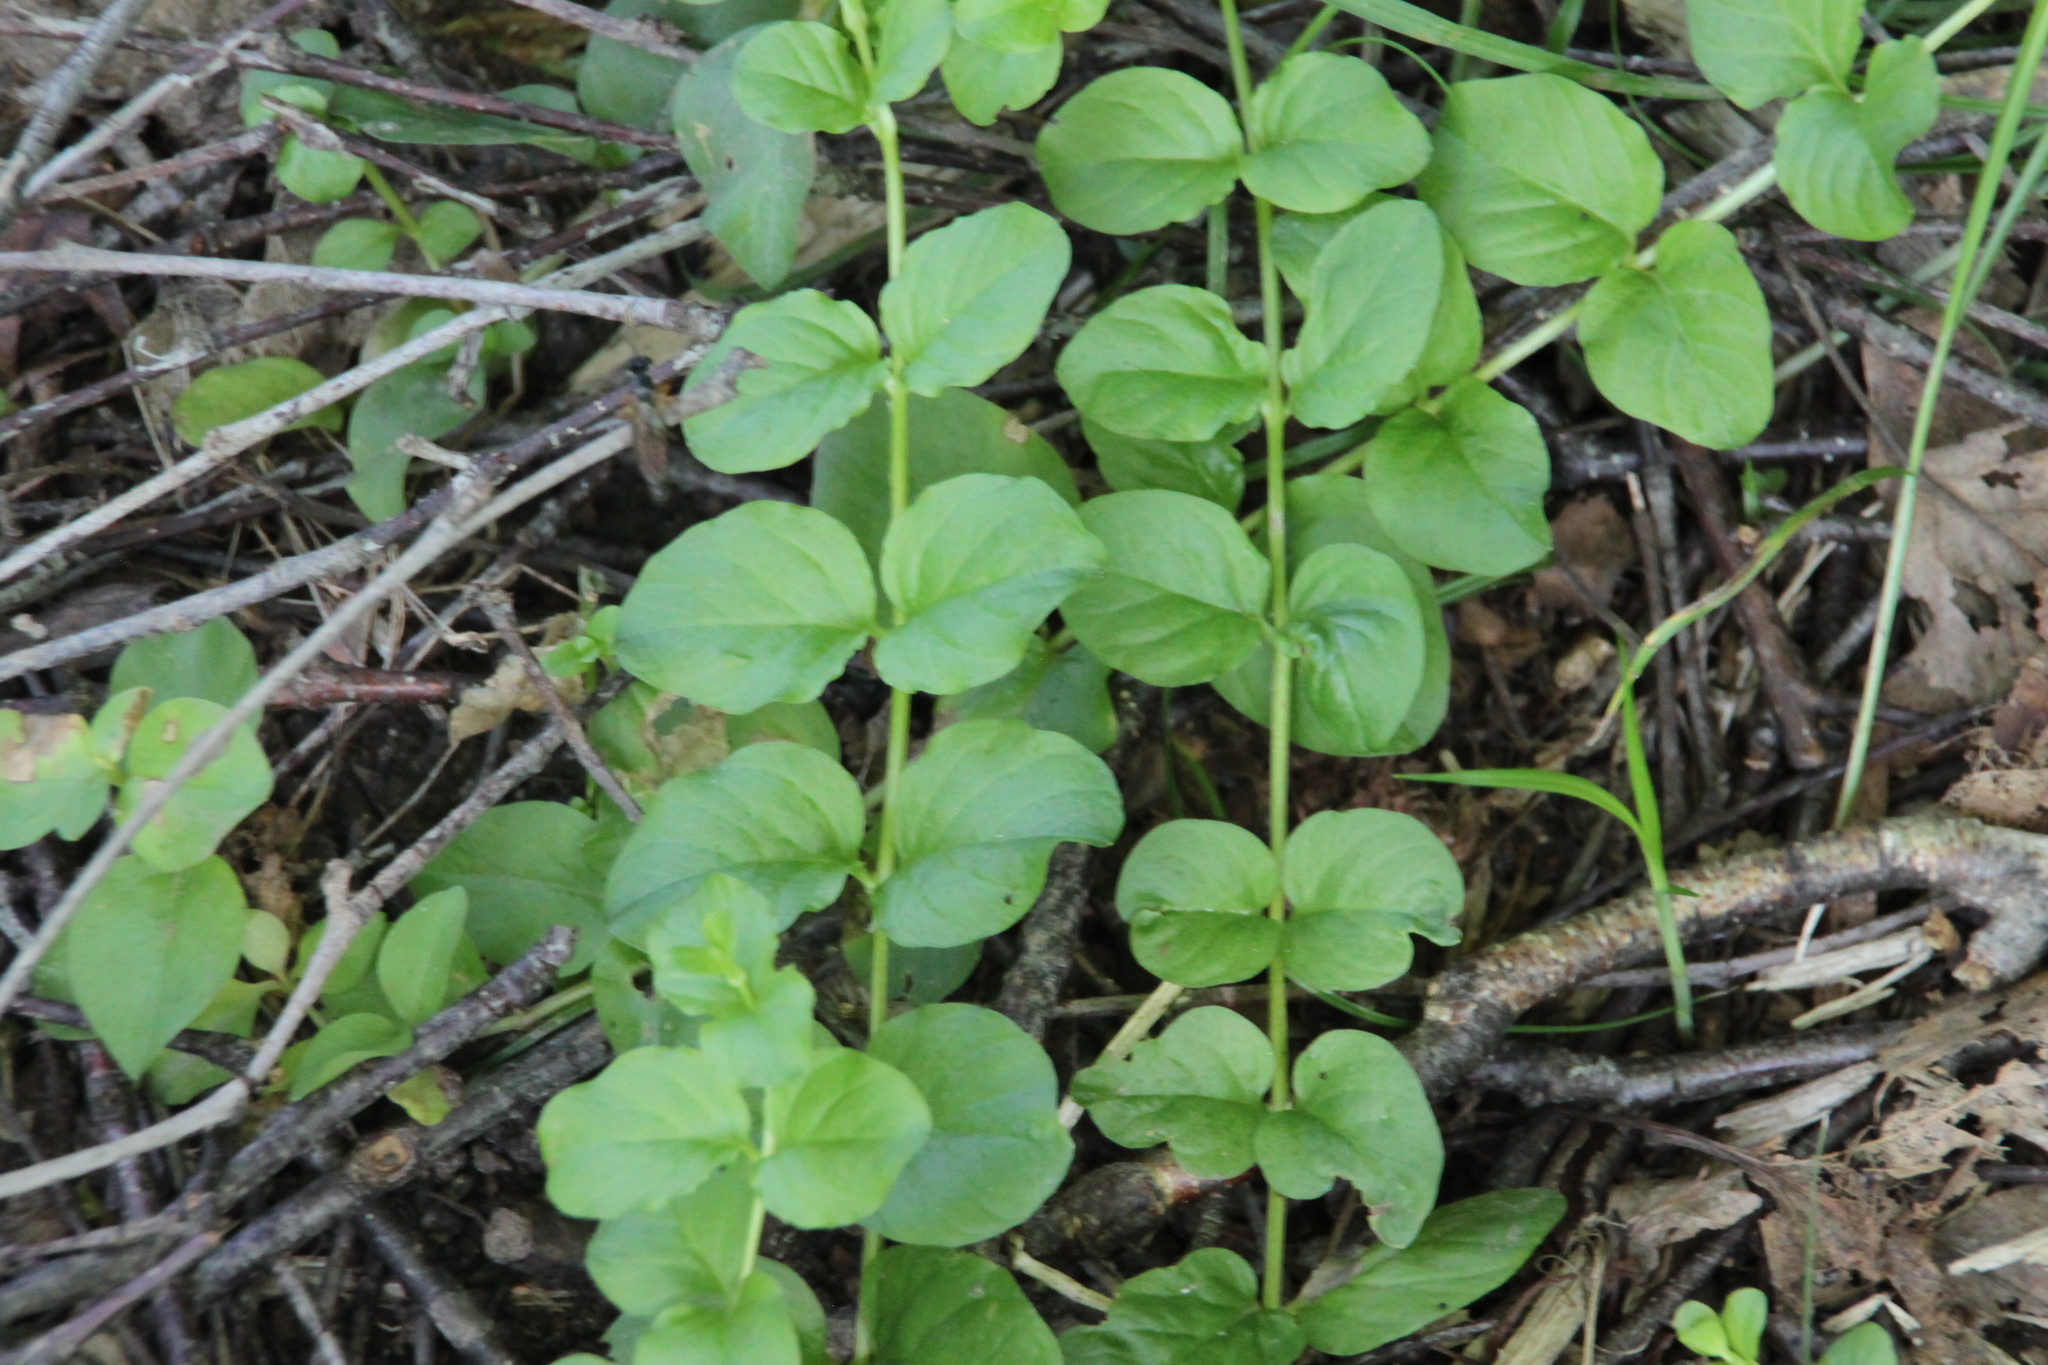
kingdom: Plantae
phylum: Tracheophyta
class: Magnoliopsida
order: Ericales
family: Primulaceae
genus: Lysimachia
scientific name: Lysimachia nummularia
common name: Moneywort
